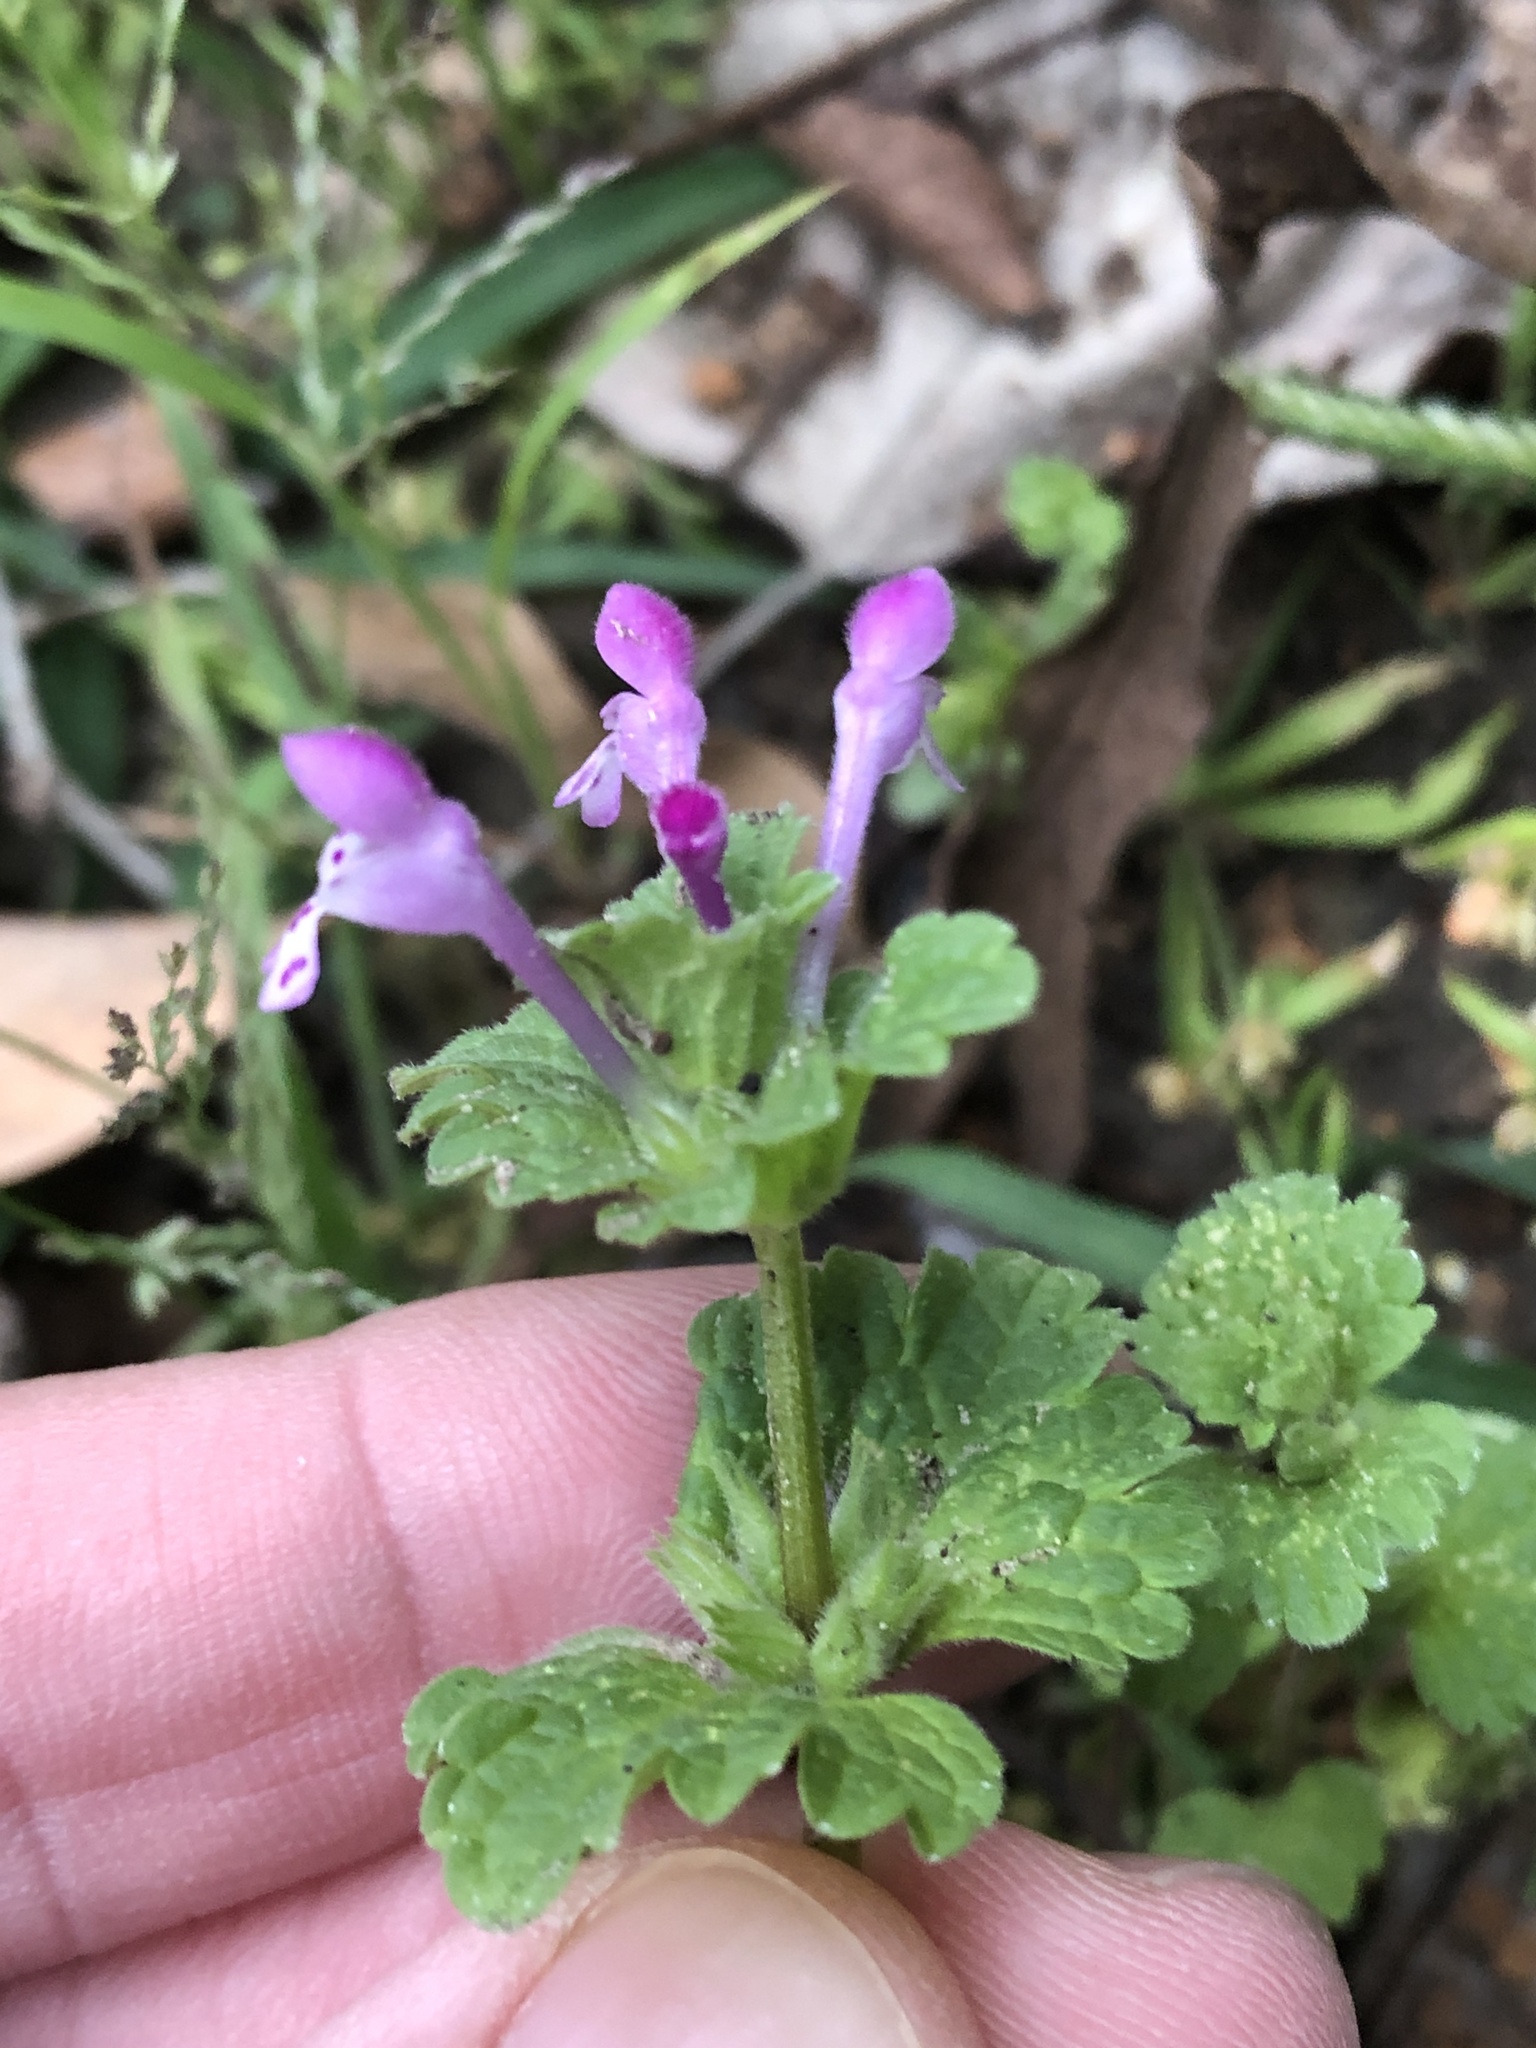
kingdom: Plantae
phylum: Tracheophyta
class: Magnoliopsida
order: Lamiales
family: Lamiaceae
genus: Lamium
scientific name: Lamium amplexicaule
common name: Henbit dead-nettle
